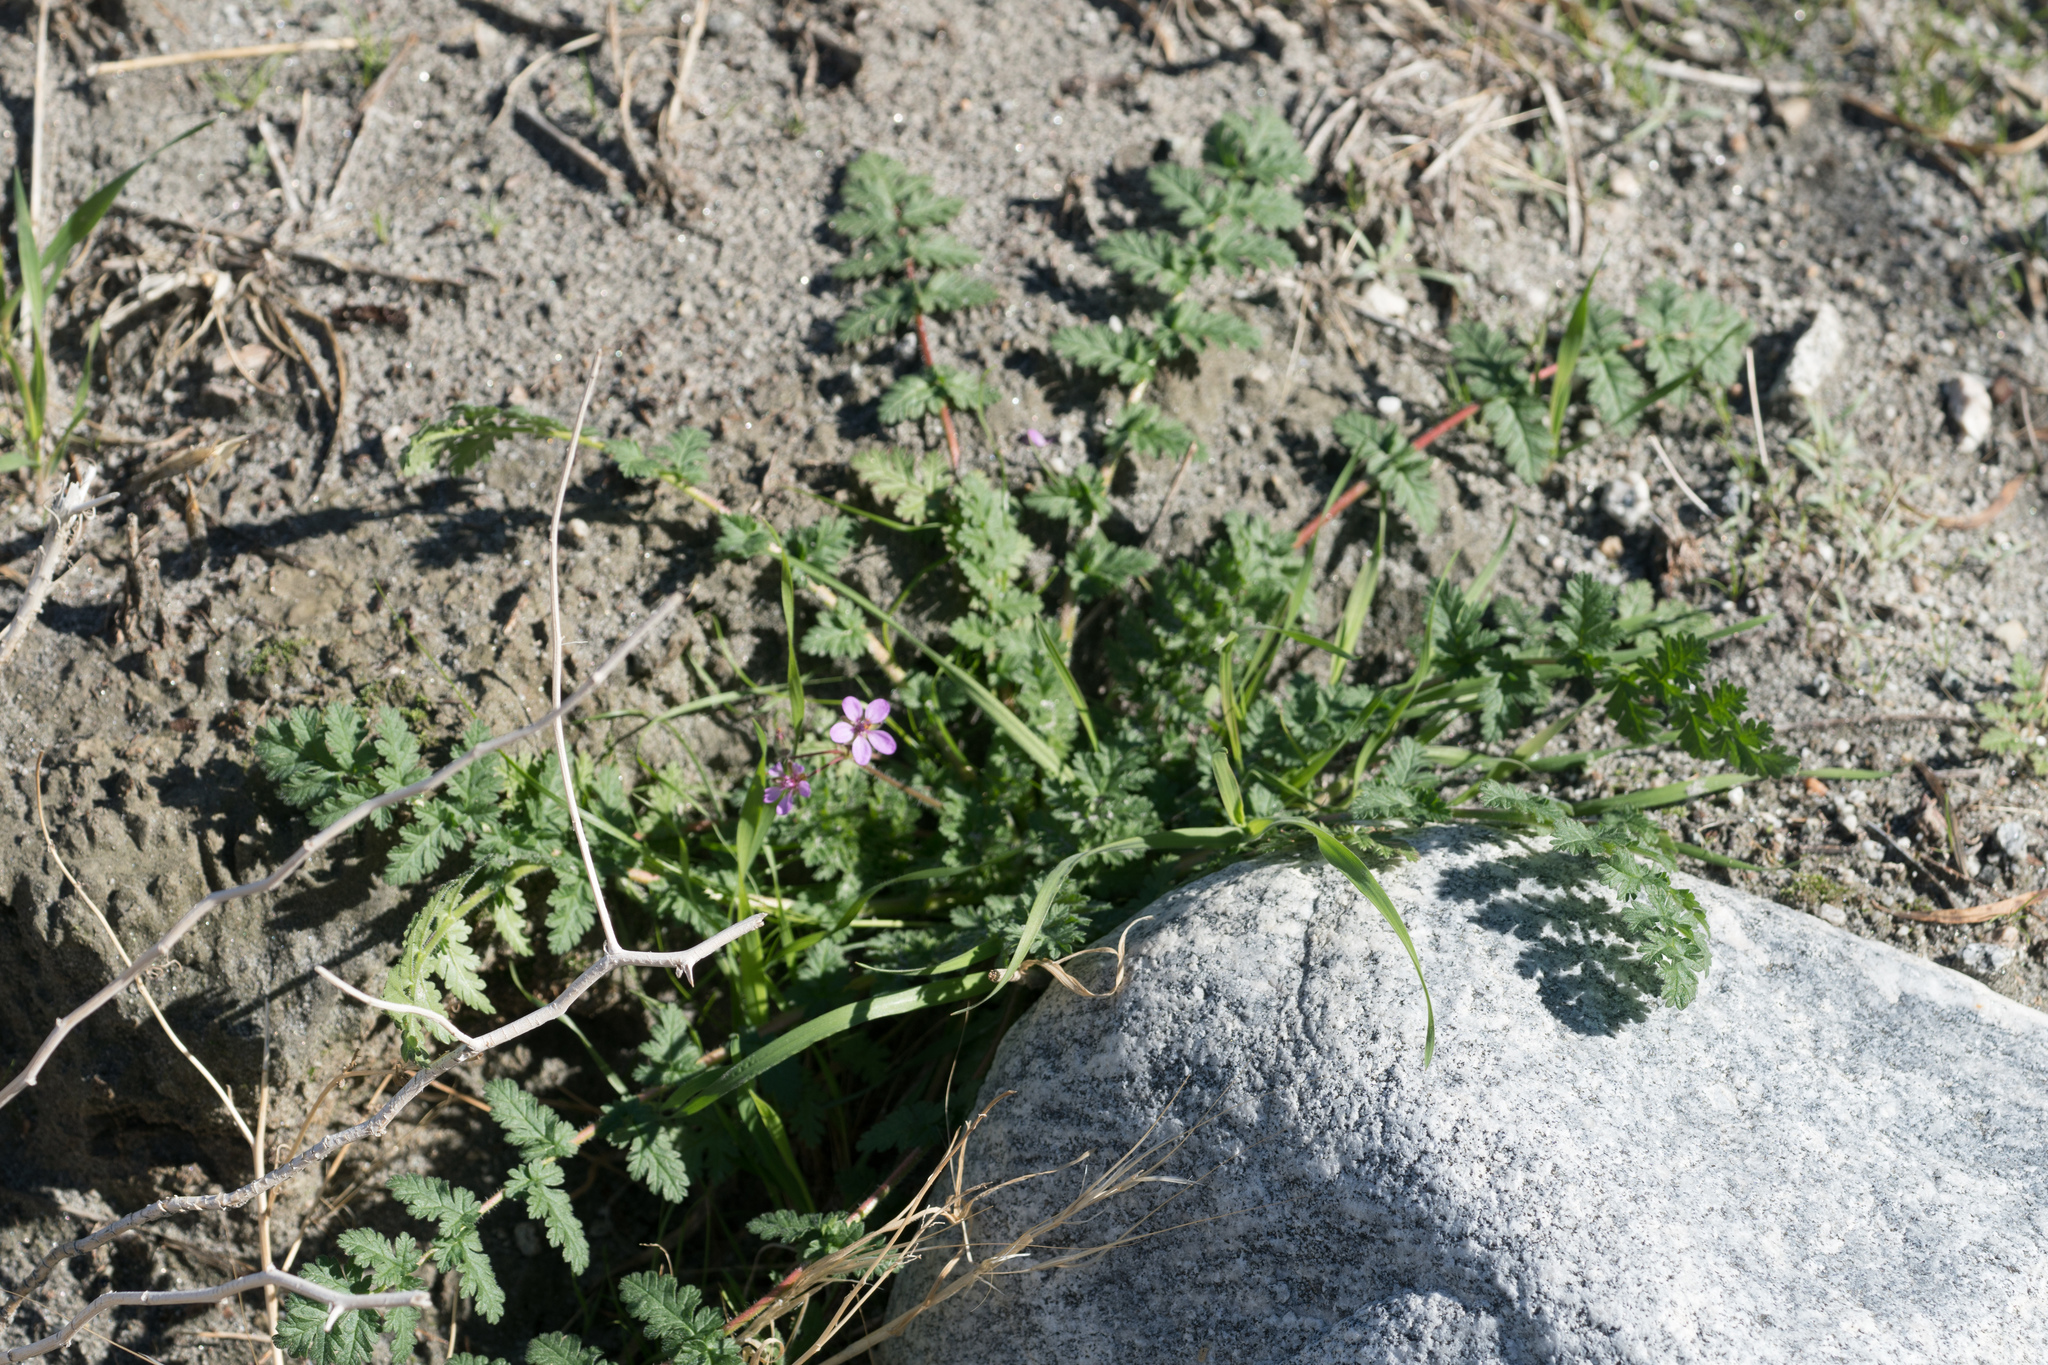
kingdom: Plantae
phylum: Tracheophyta
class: Magnoliopsida
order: Geraniales
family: Geraniaceae
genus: Erodium
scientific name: Erodium cicutarium
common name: Common stork's-bill
